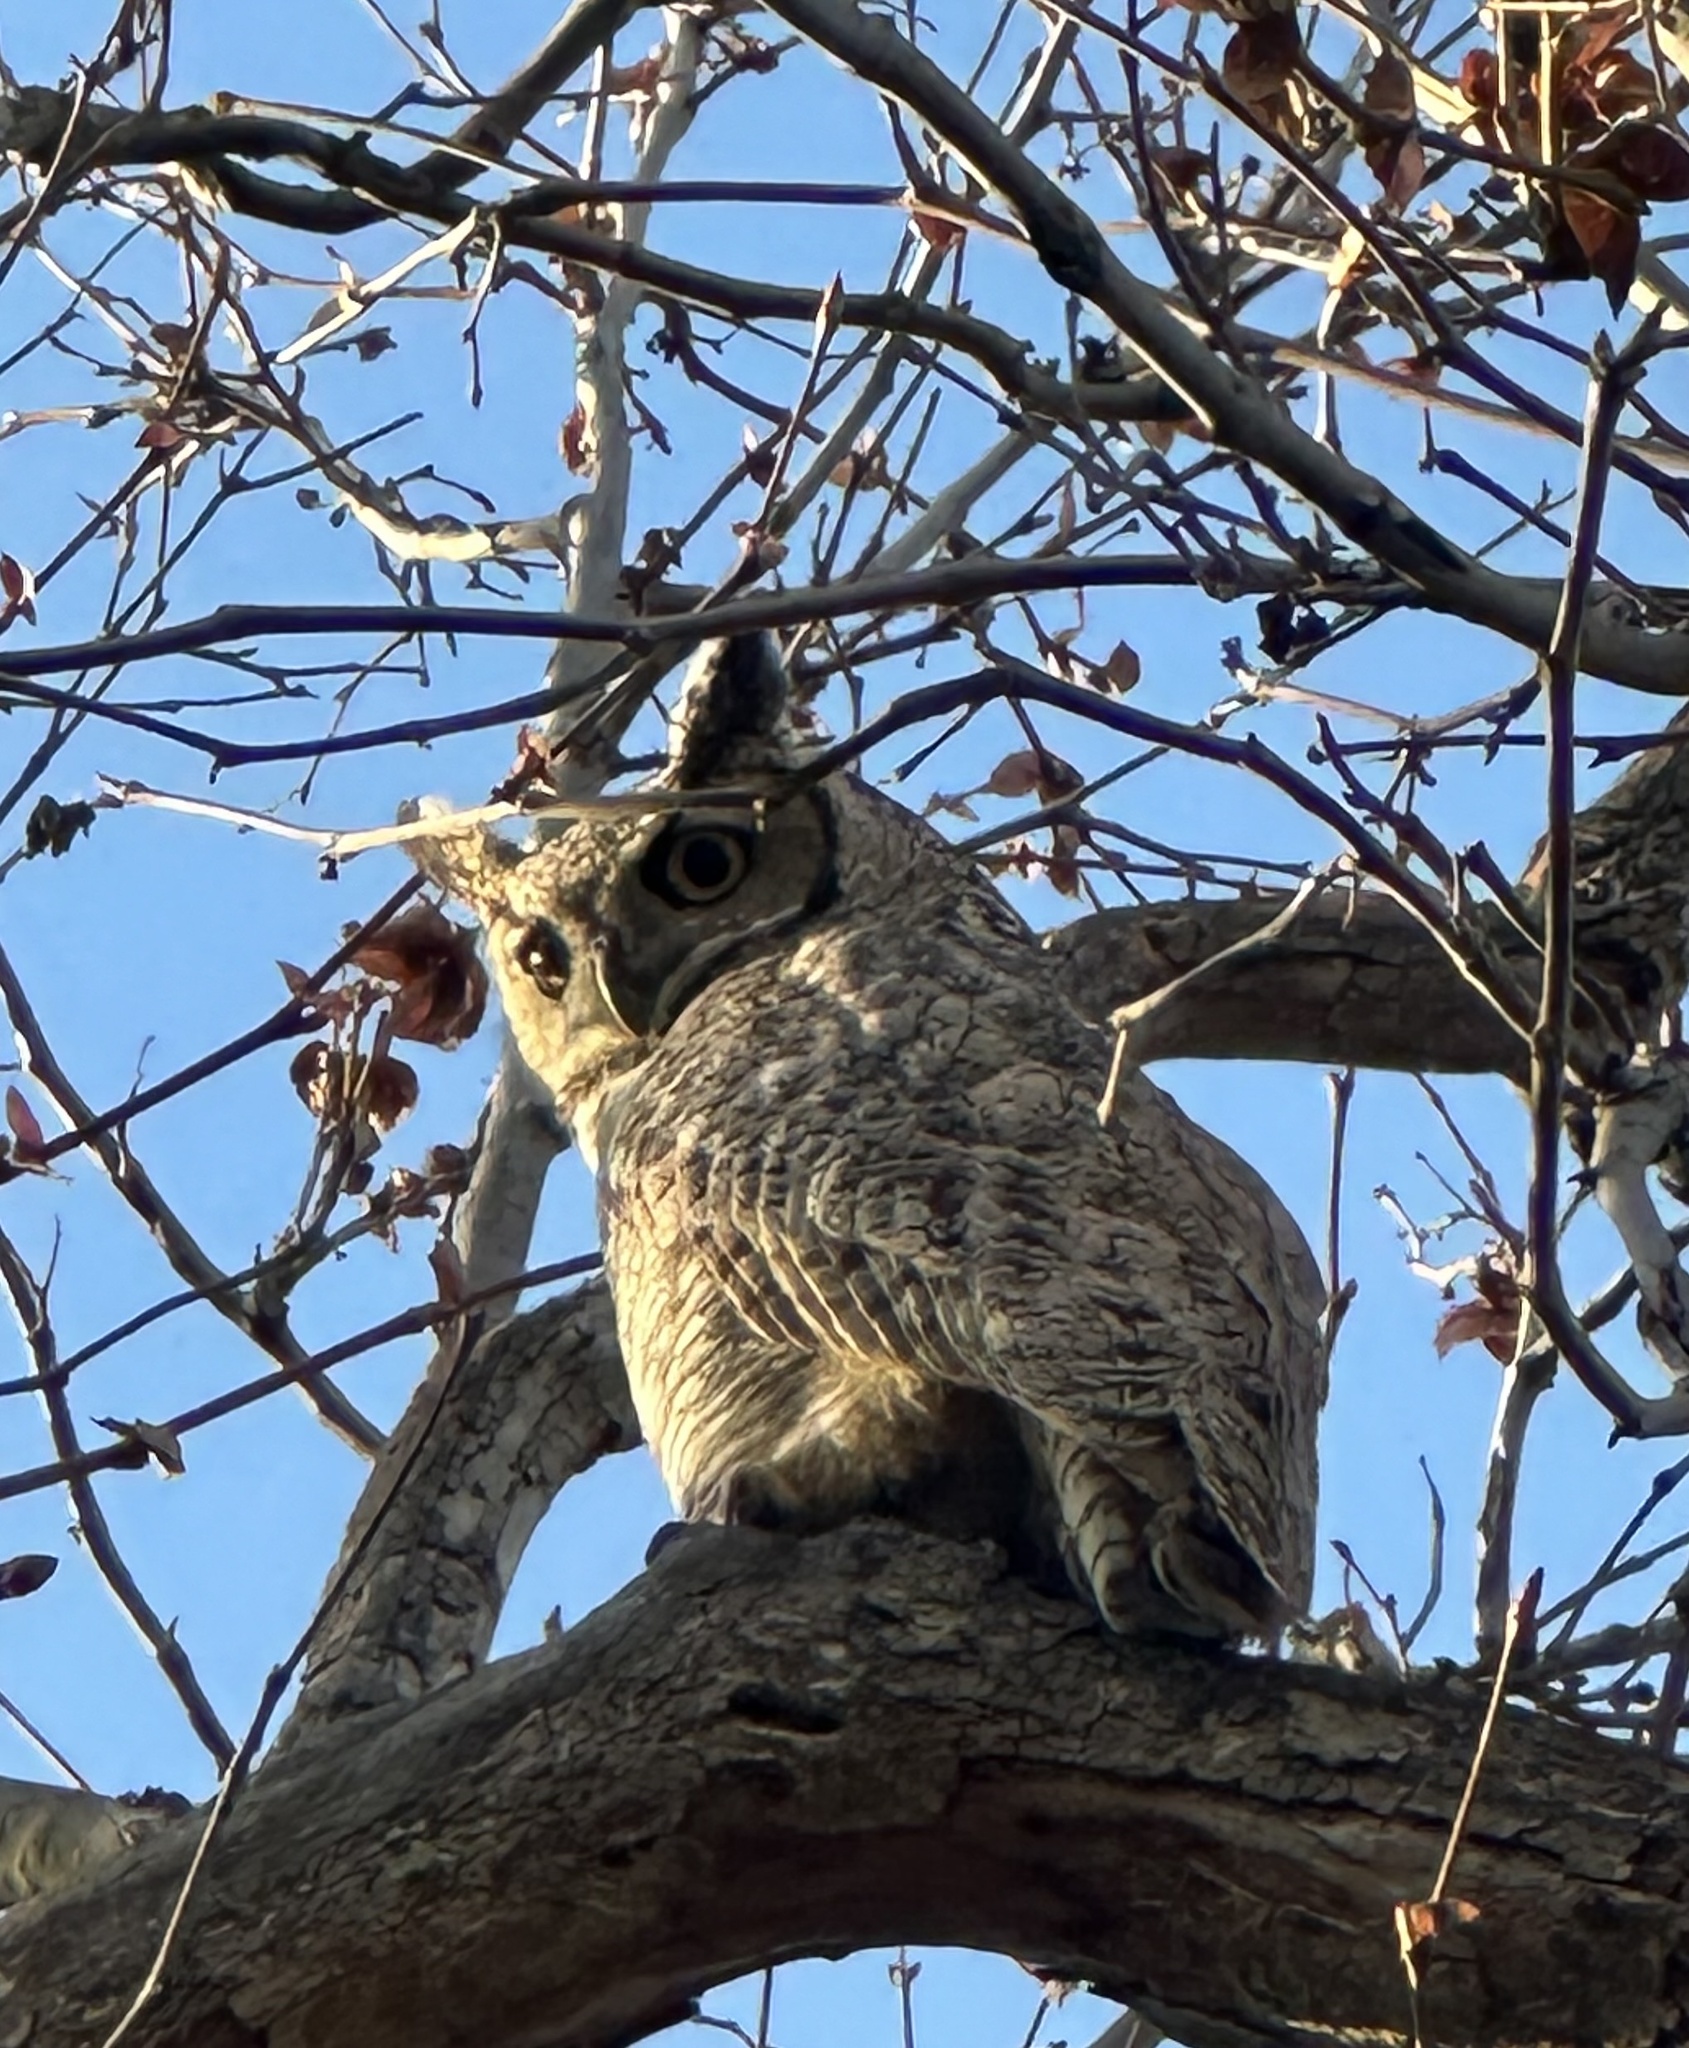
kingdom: Animalia
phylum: Chordata
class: Aves
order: Strigiformes
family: Strigidae
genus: Bubo
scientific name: Bubo virginianus
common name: Great horned owl
